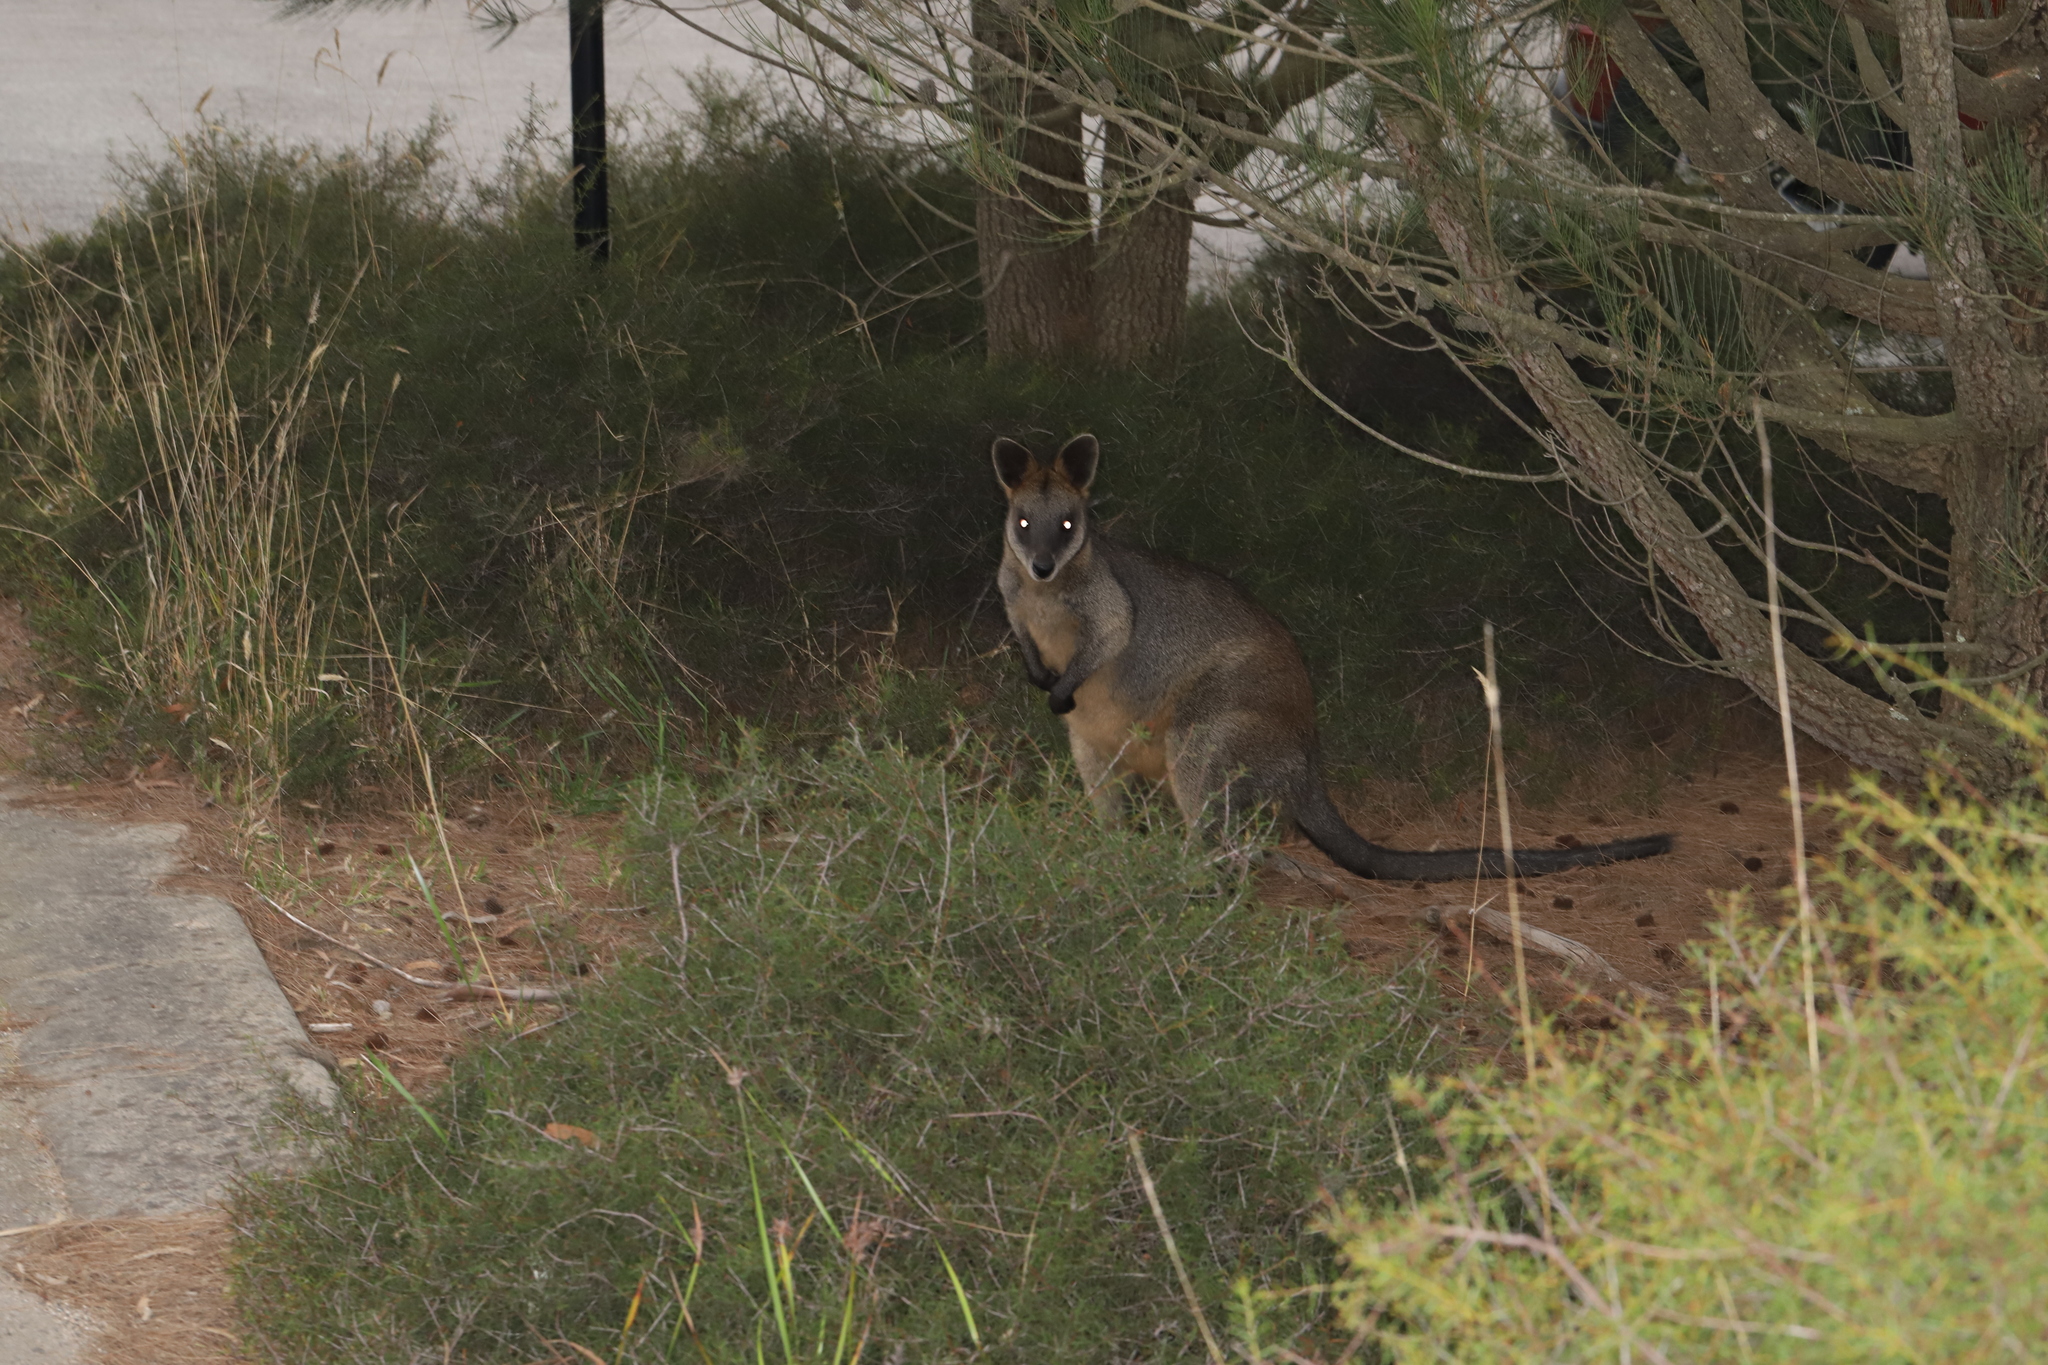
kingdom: Animalia
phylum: Chordata
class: Mammalia
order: Diprotodontia
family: Macropodidae
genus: Wallabia
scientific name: Wallabia bicolor
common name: Swamp wallaby
